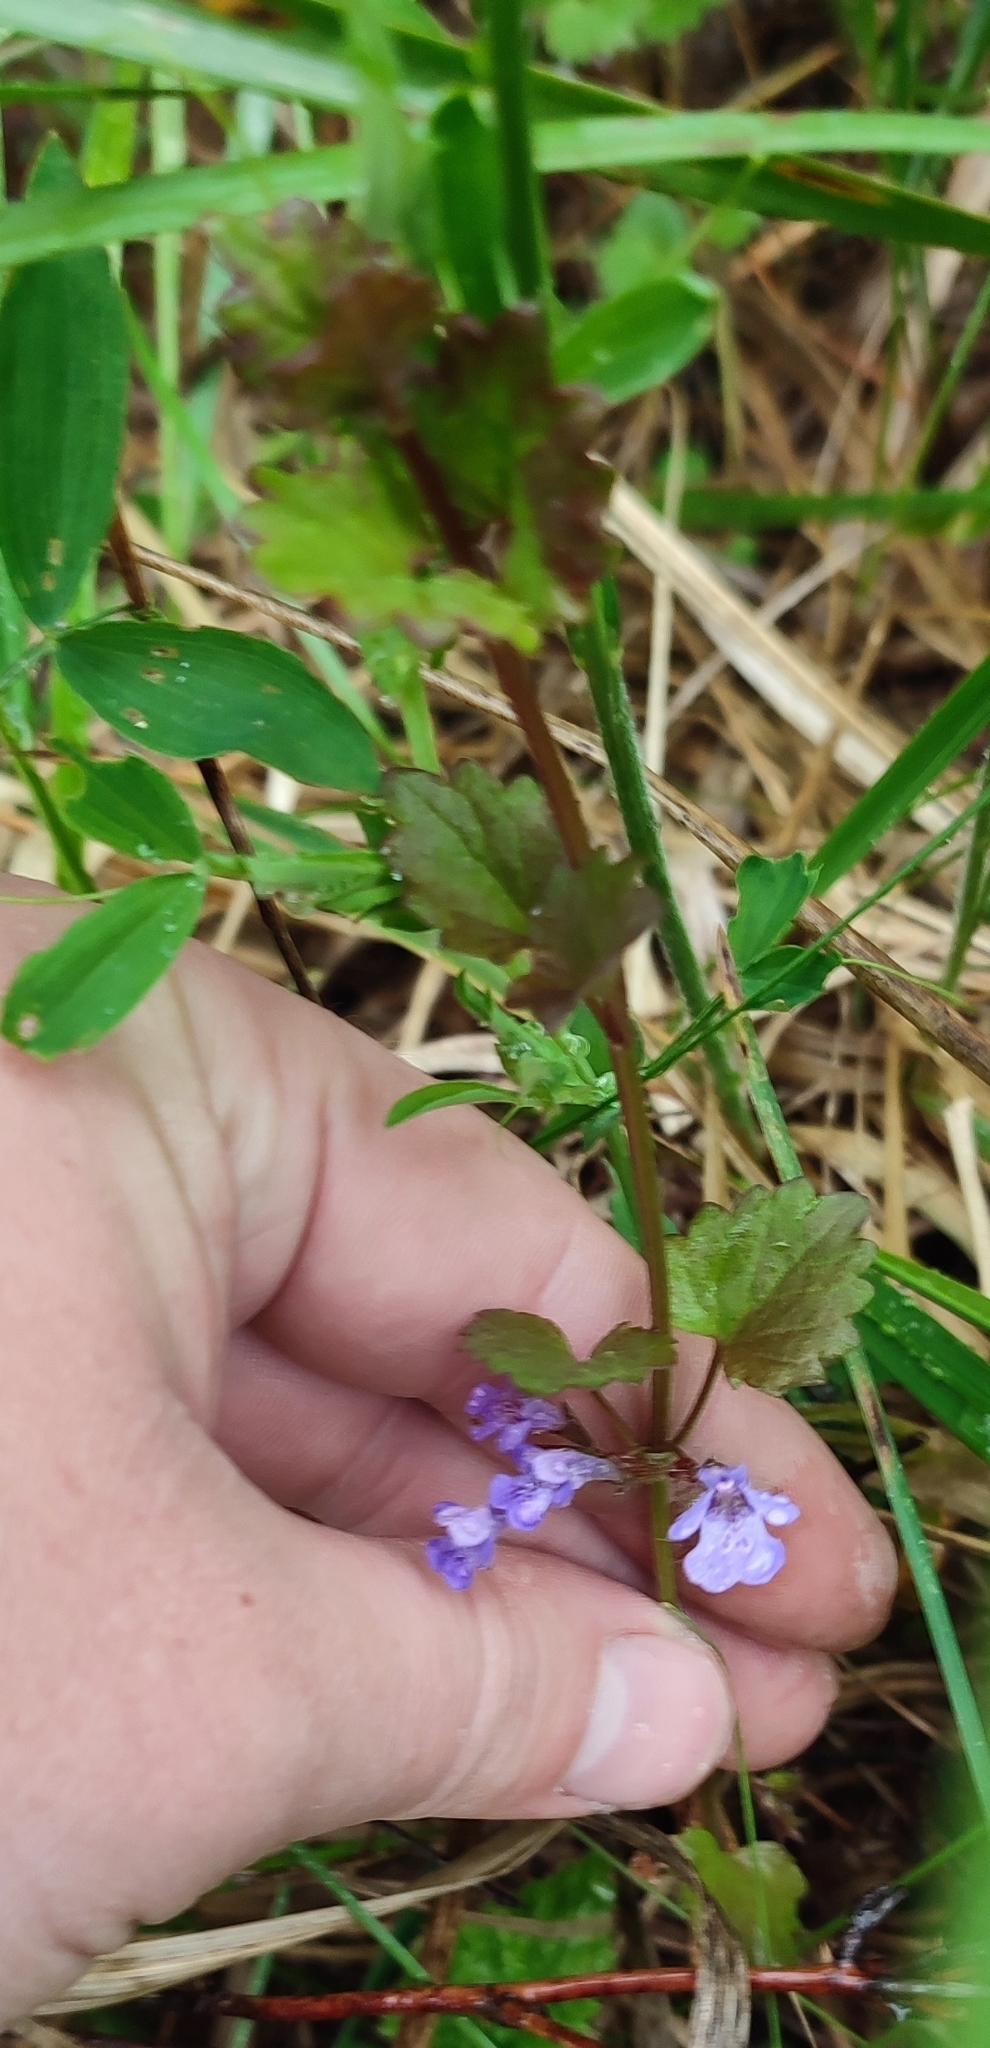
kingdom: Plantae
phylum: Tracheophyta
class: Magnoliopsida
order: Lamiales
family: Lamiaceae
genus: Glechoma
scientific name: Glechoma hederacea
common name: Ground ivy
